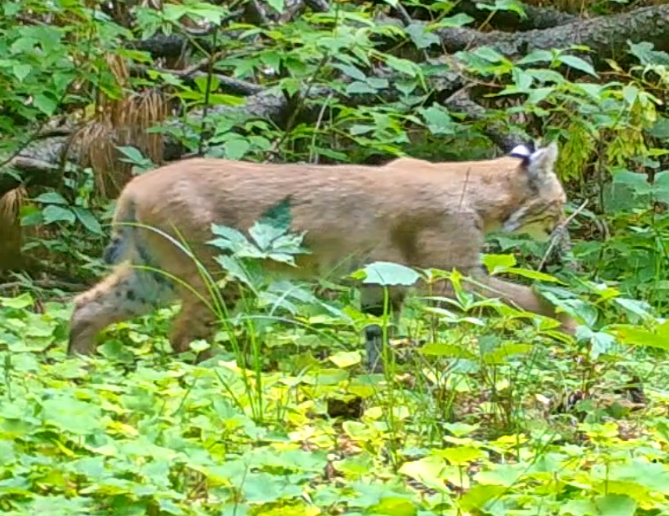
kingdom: Animalia
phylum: Chordata
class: Mammalia
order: Carnivora
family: Felidae
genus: Lynx
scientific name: Lynx rufus
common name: Bobcat
